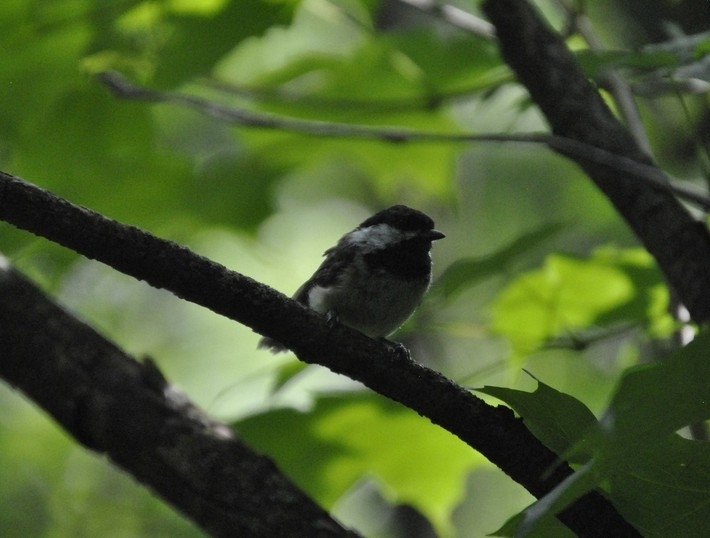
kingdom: Animalia
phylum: Chordata
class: Aves
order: Passeriformes
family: Paridae
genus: Poecile
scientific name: Poecile atricapillus
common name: Black-capped chickadee
